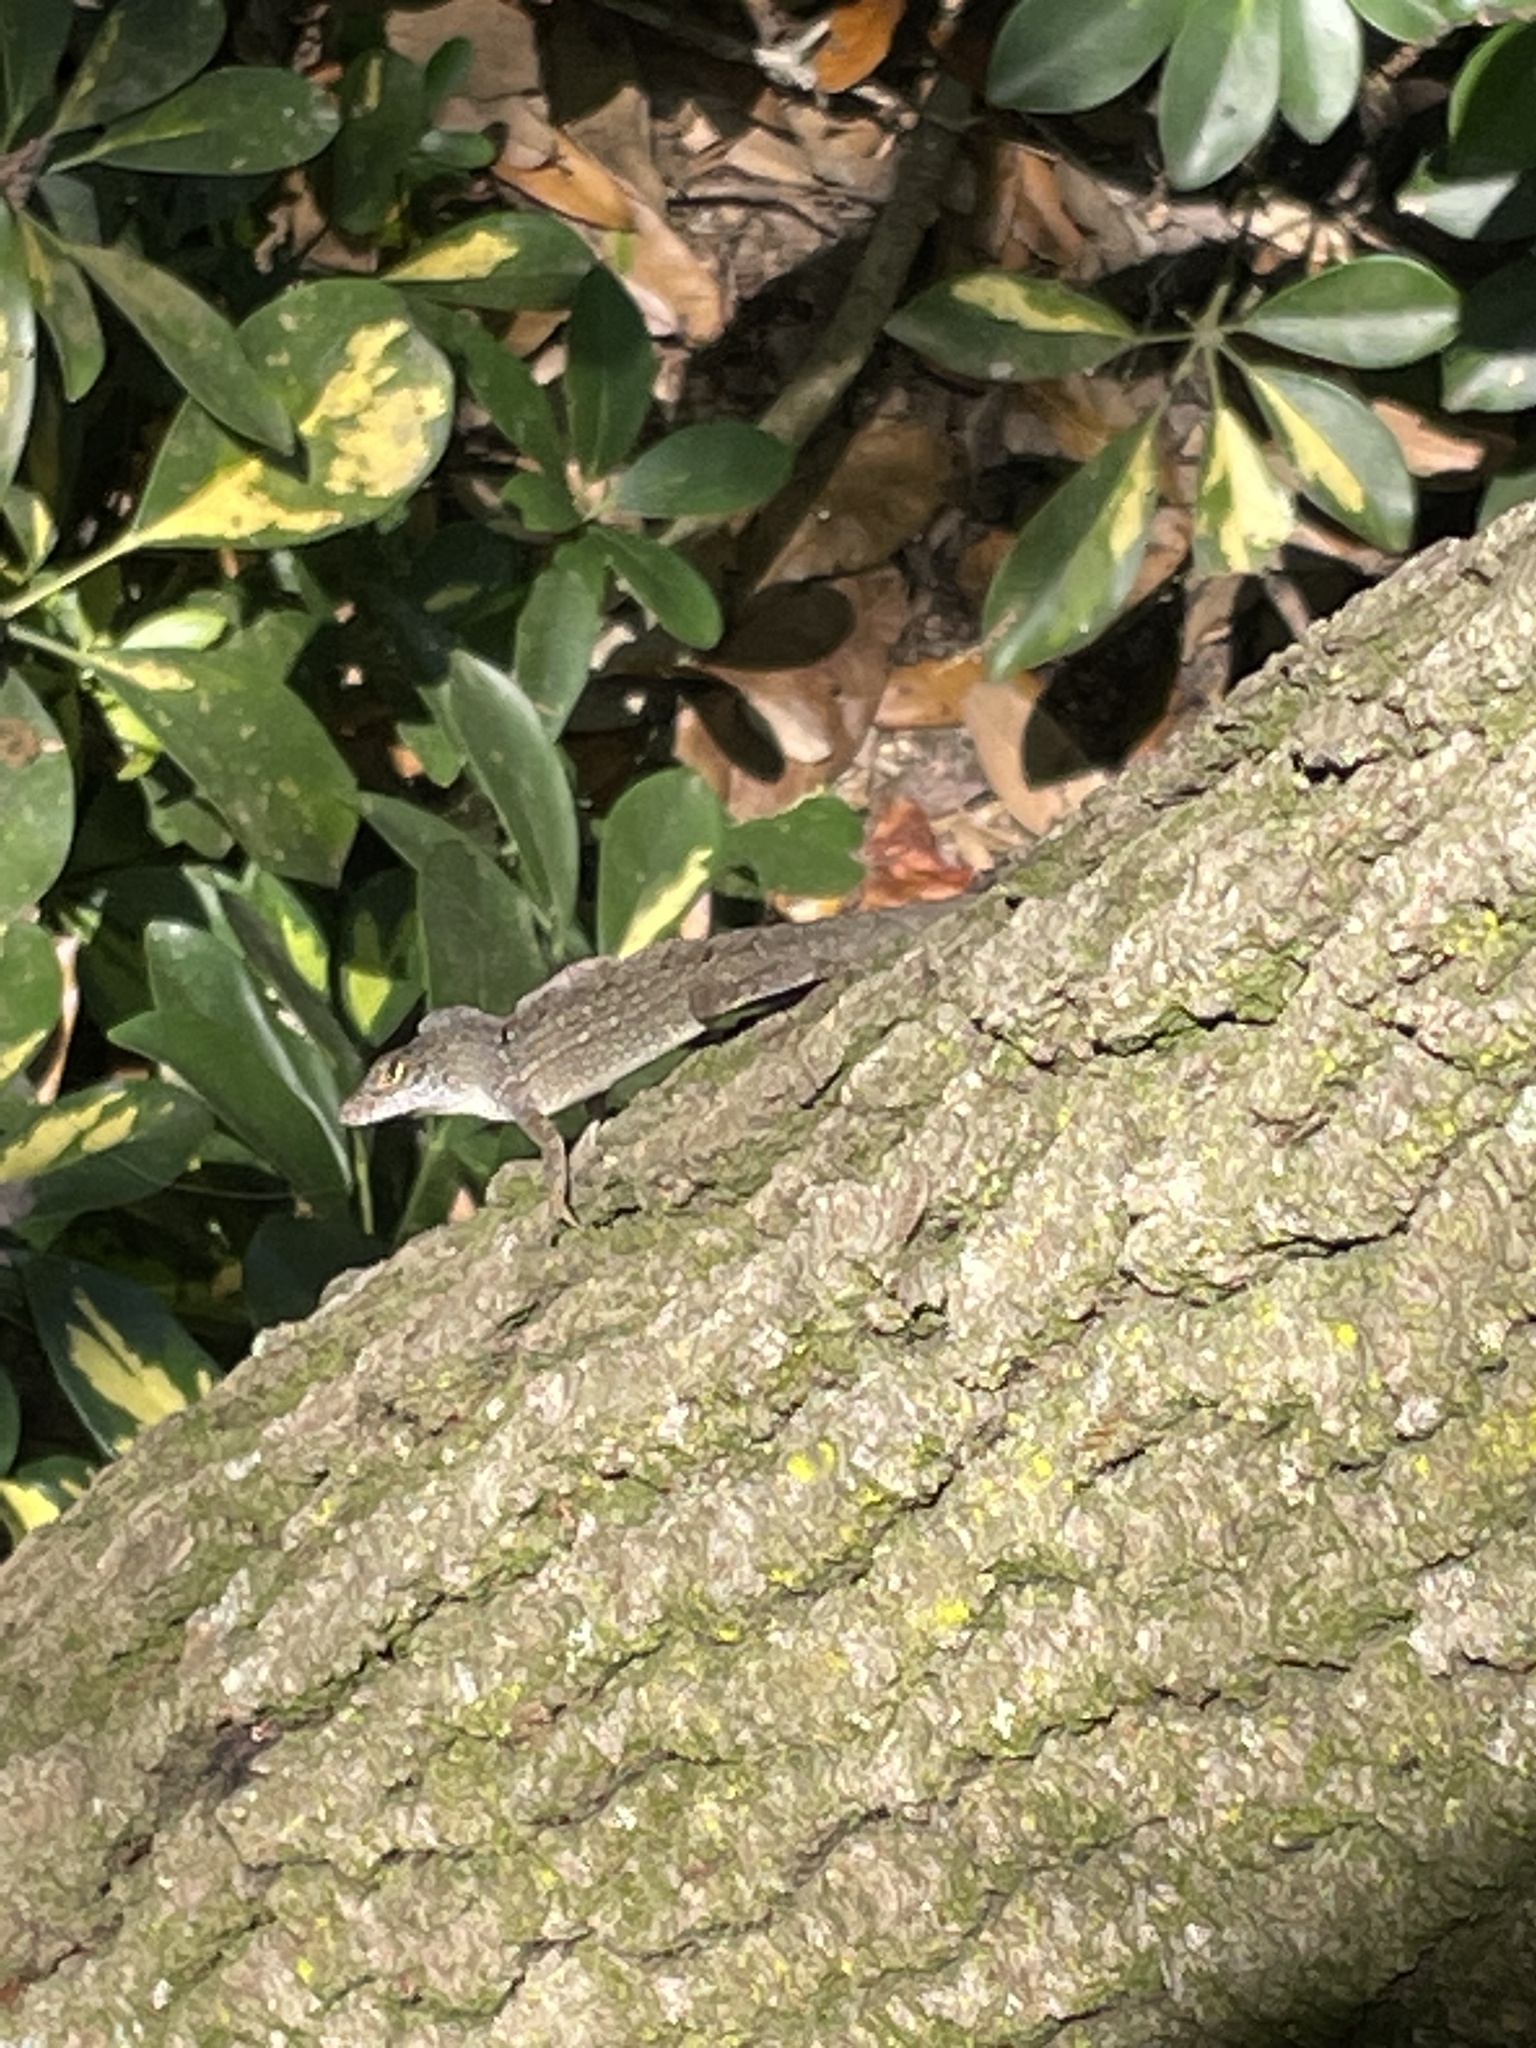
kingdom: Animalia
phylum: Chordata
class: Squamata
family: Dactyloidae
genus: Anolis
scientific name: Anolis sagrei
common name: Brown anole
